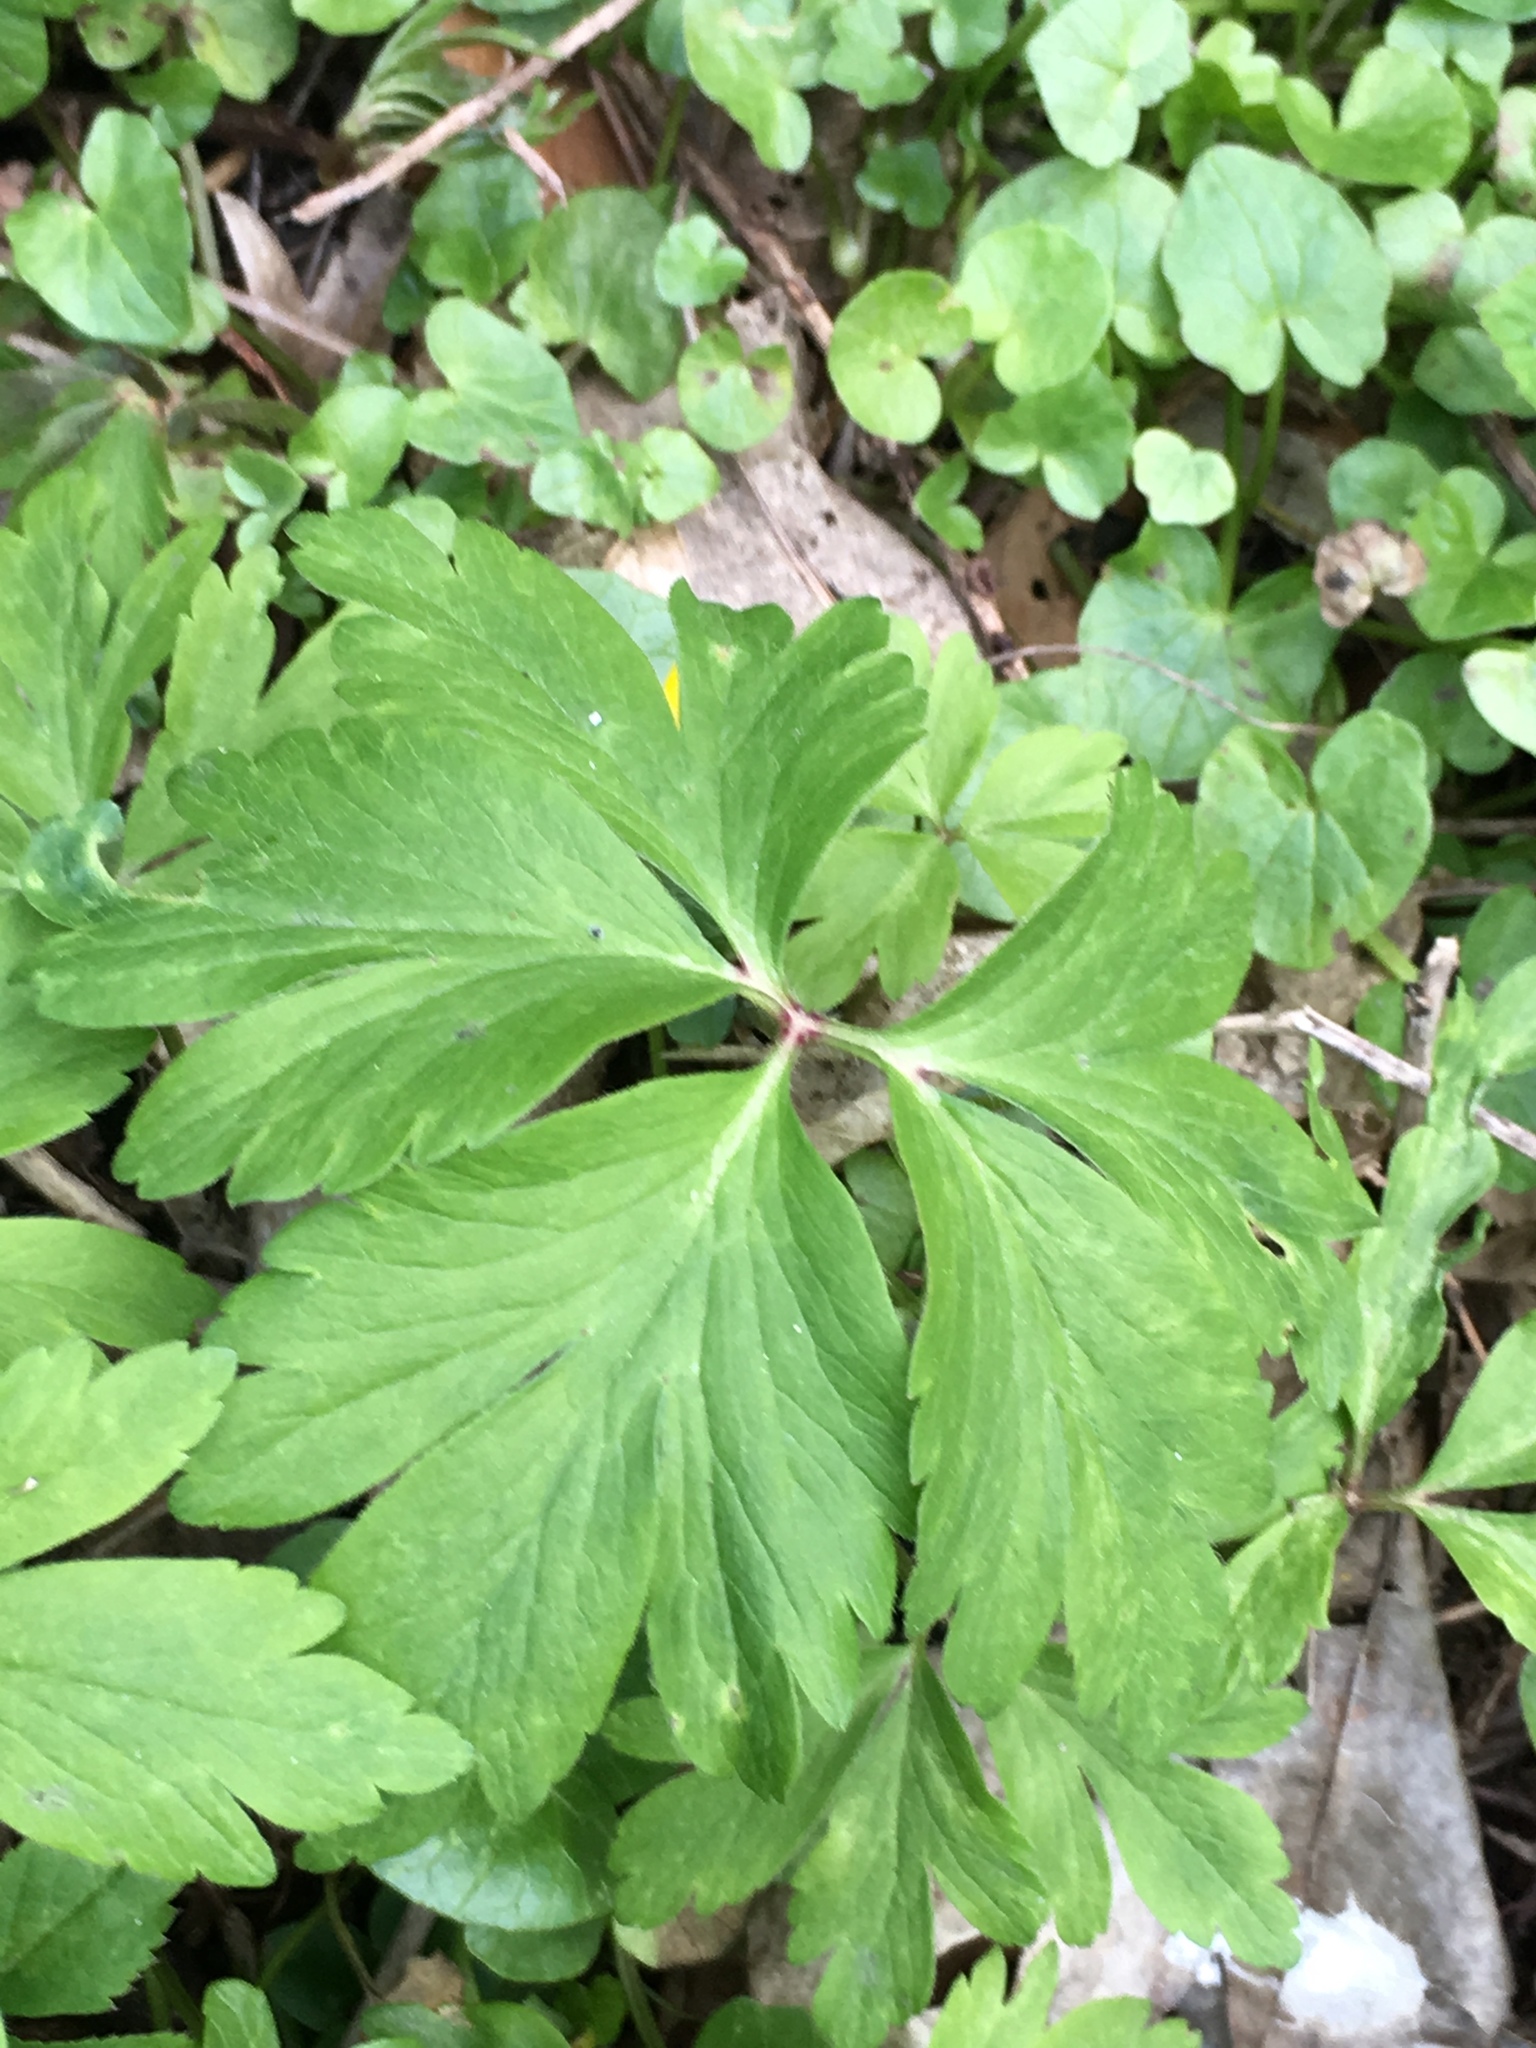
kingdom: Plantae
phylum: Tracheophyta
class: Magnoliopsida
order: Ranunculales
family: Ranunculaceae
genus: Anemone
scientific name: Anemone ranunculoides
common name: Yellow anemone
